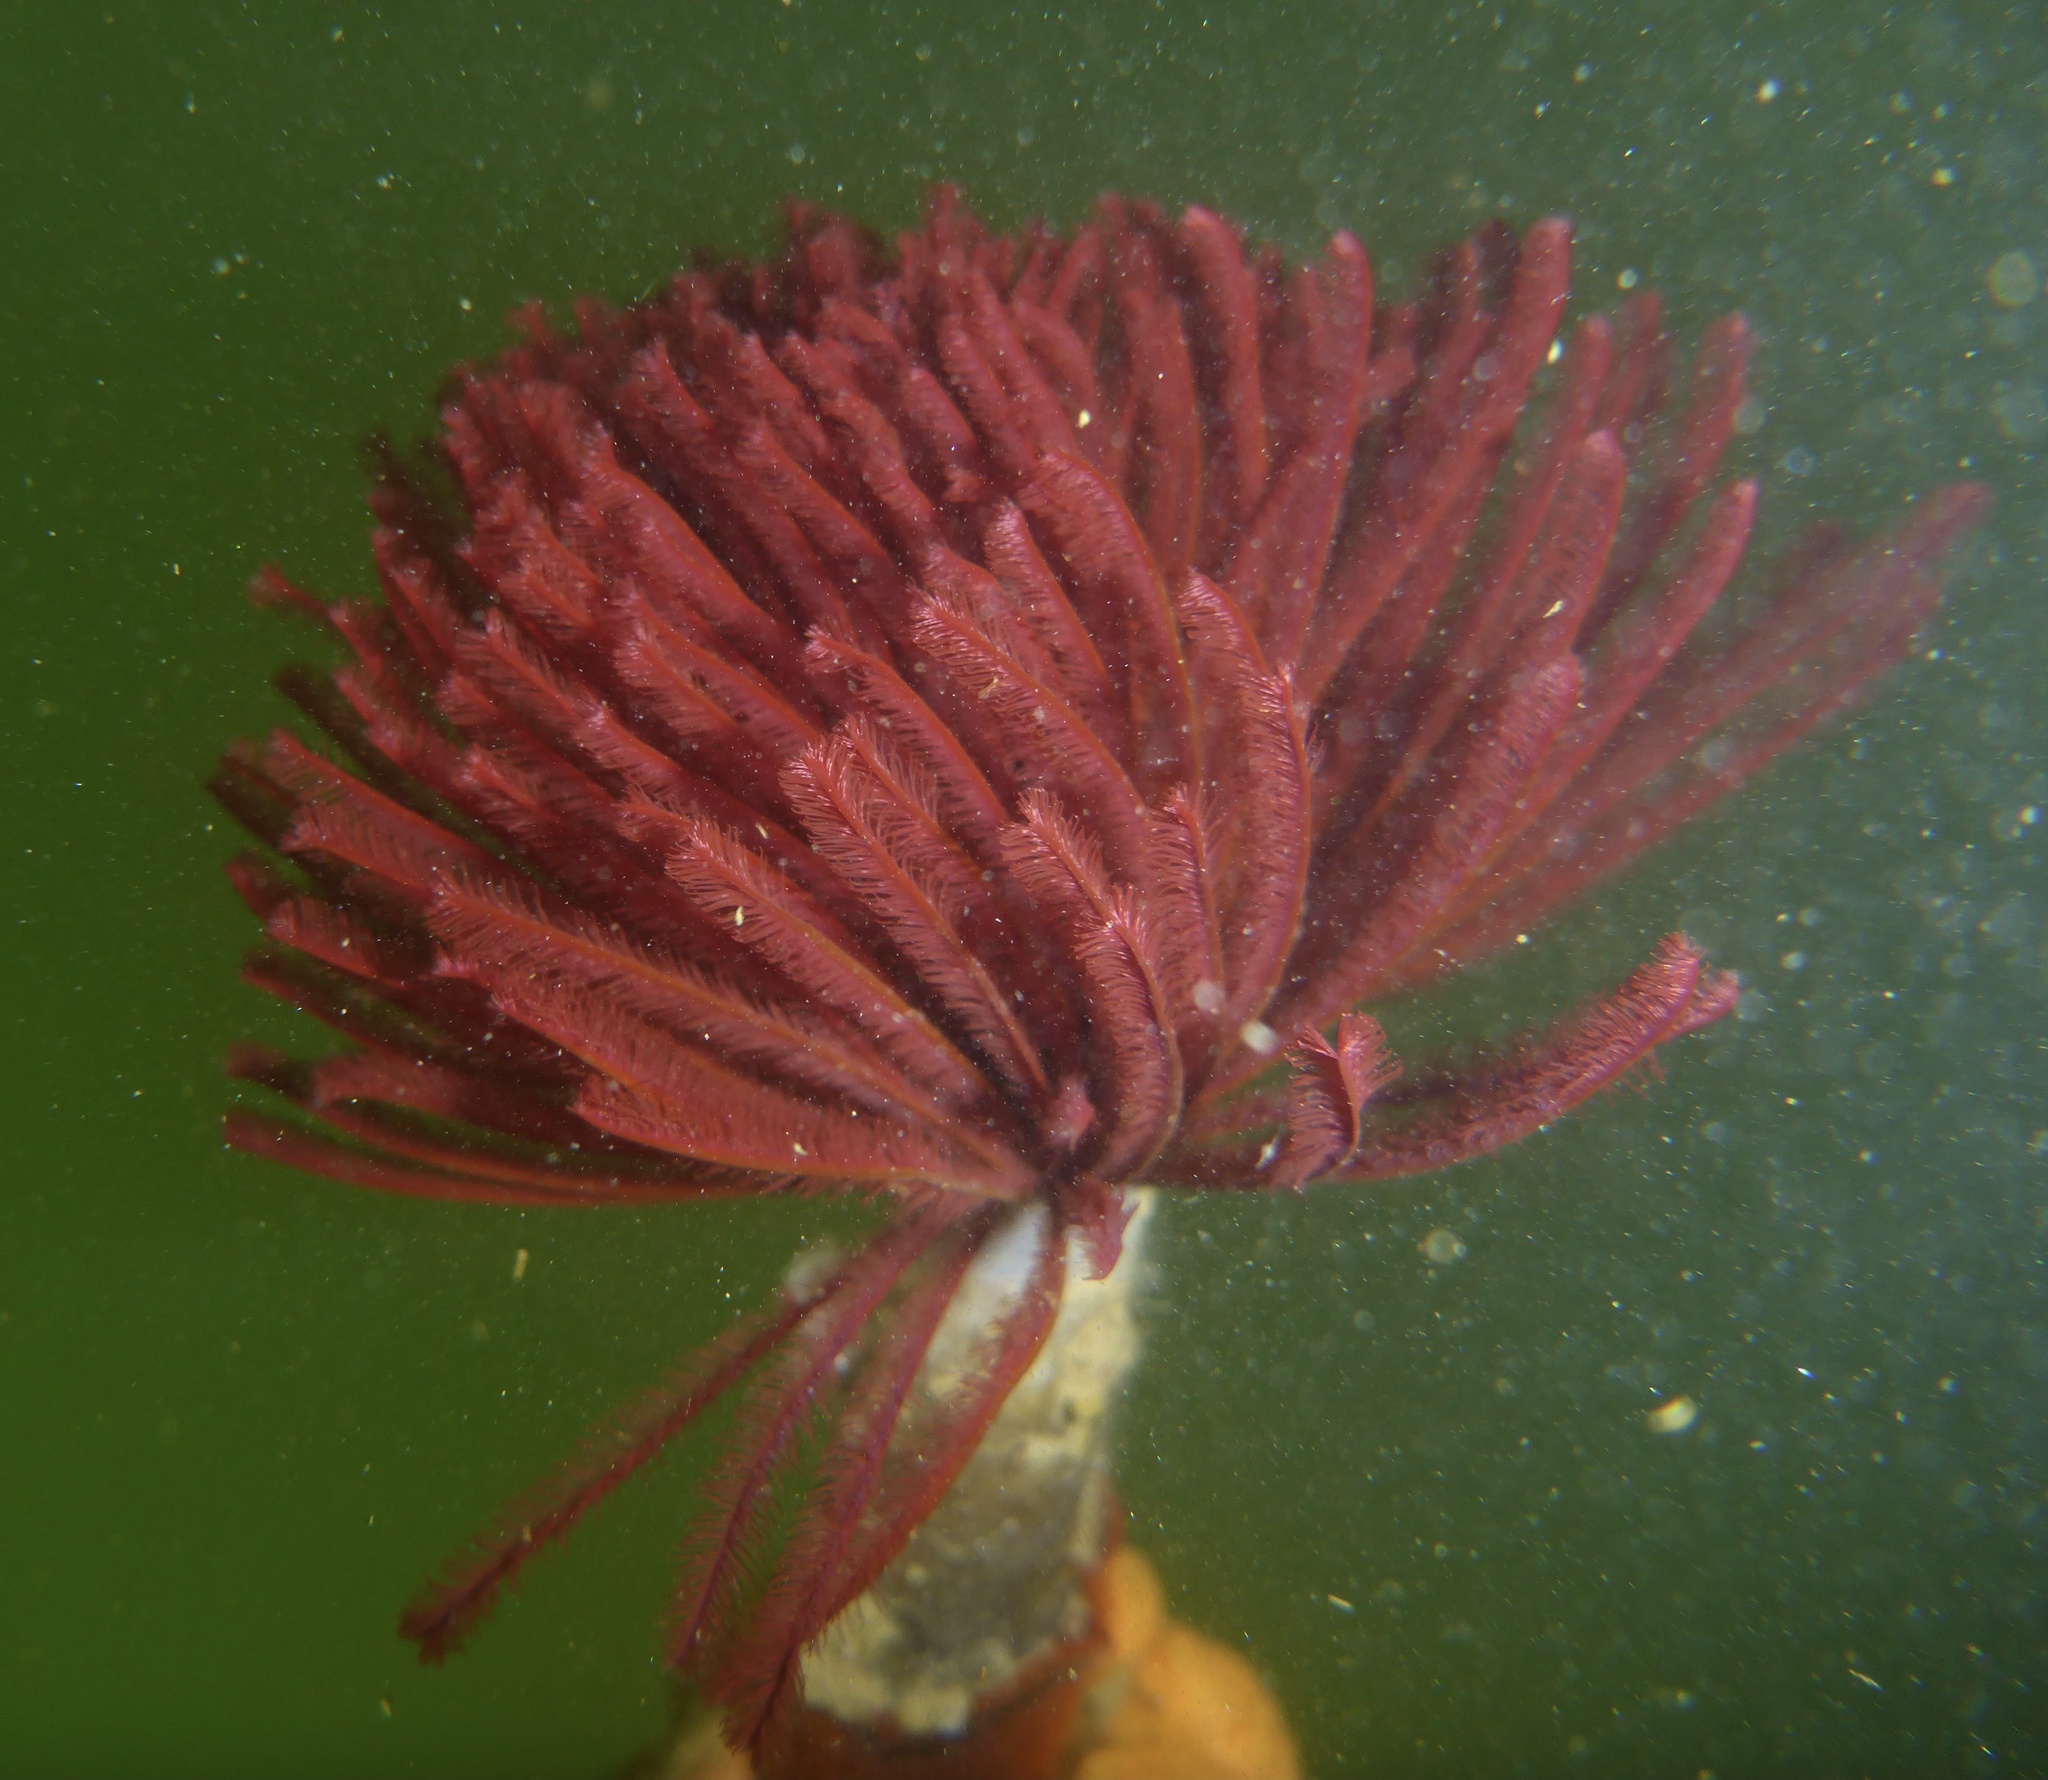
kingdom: Animalia
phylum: Annelida
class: Polychaeta
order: Sabellida
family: Sabellidae
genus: Eudistylia
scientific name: Eudistylia polymorpha
